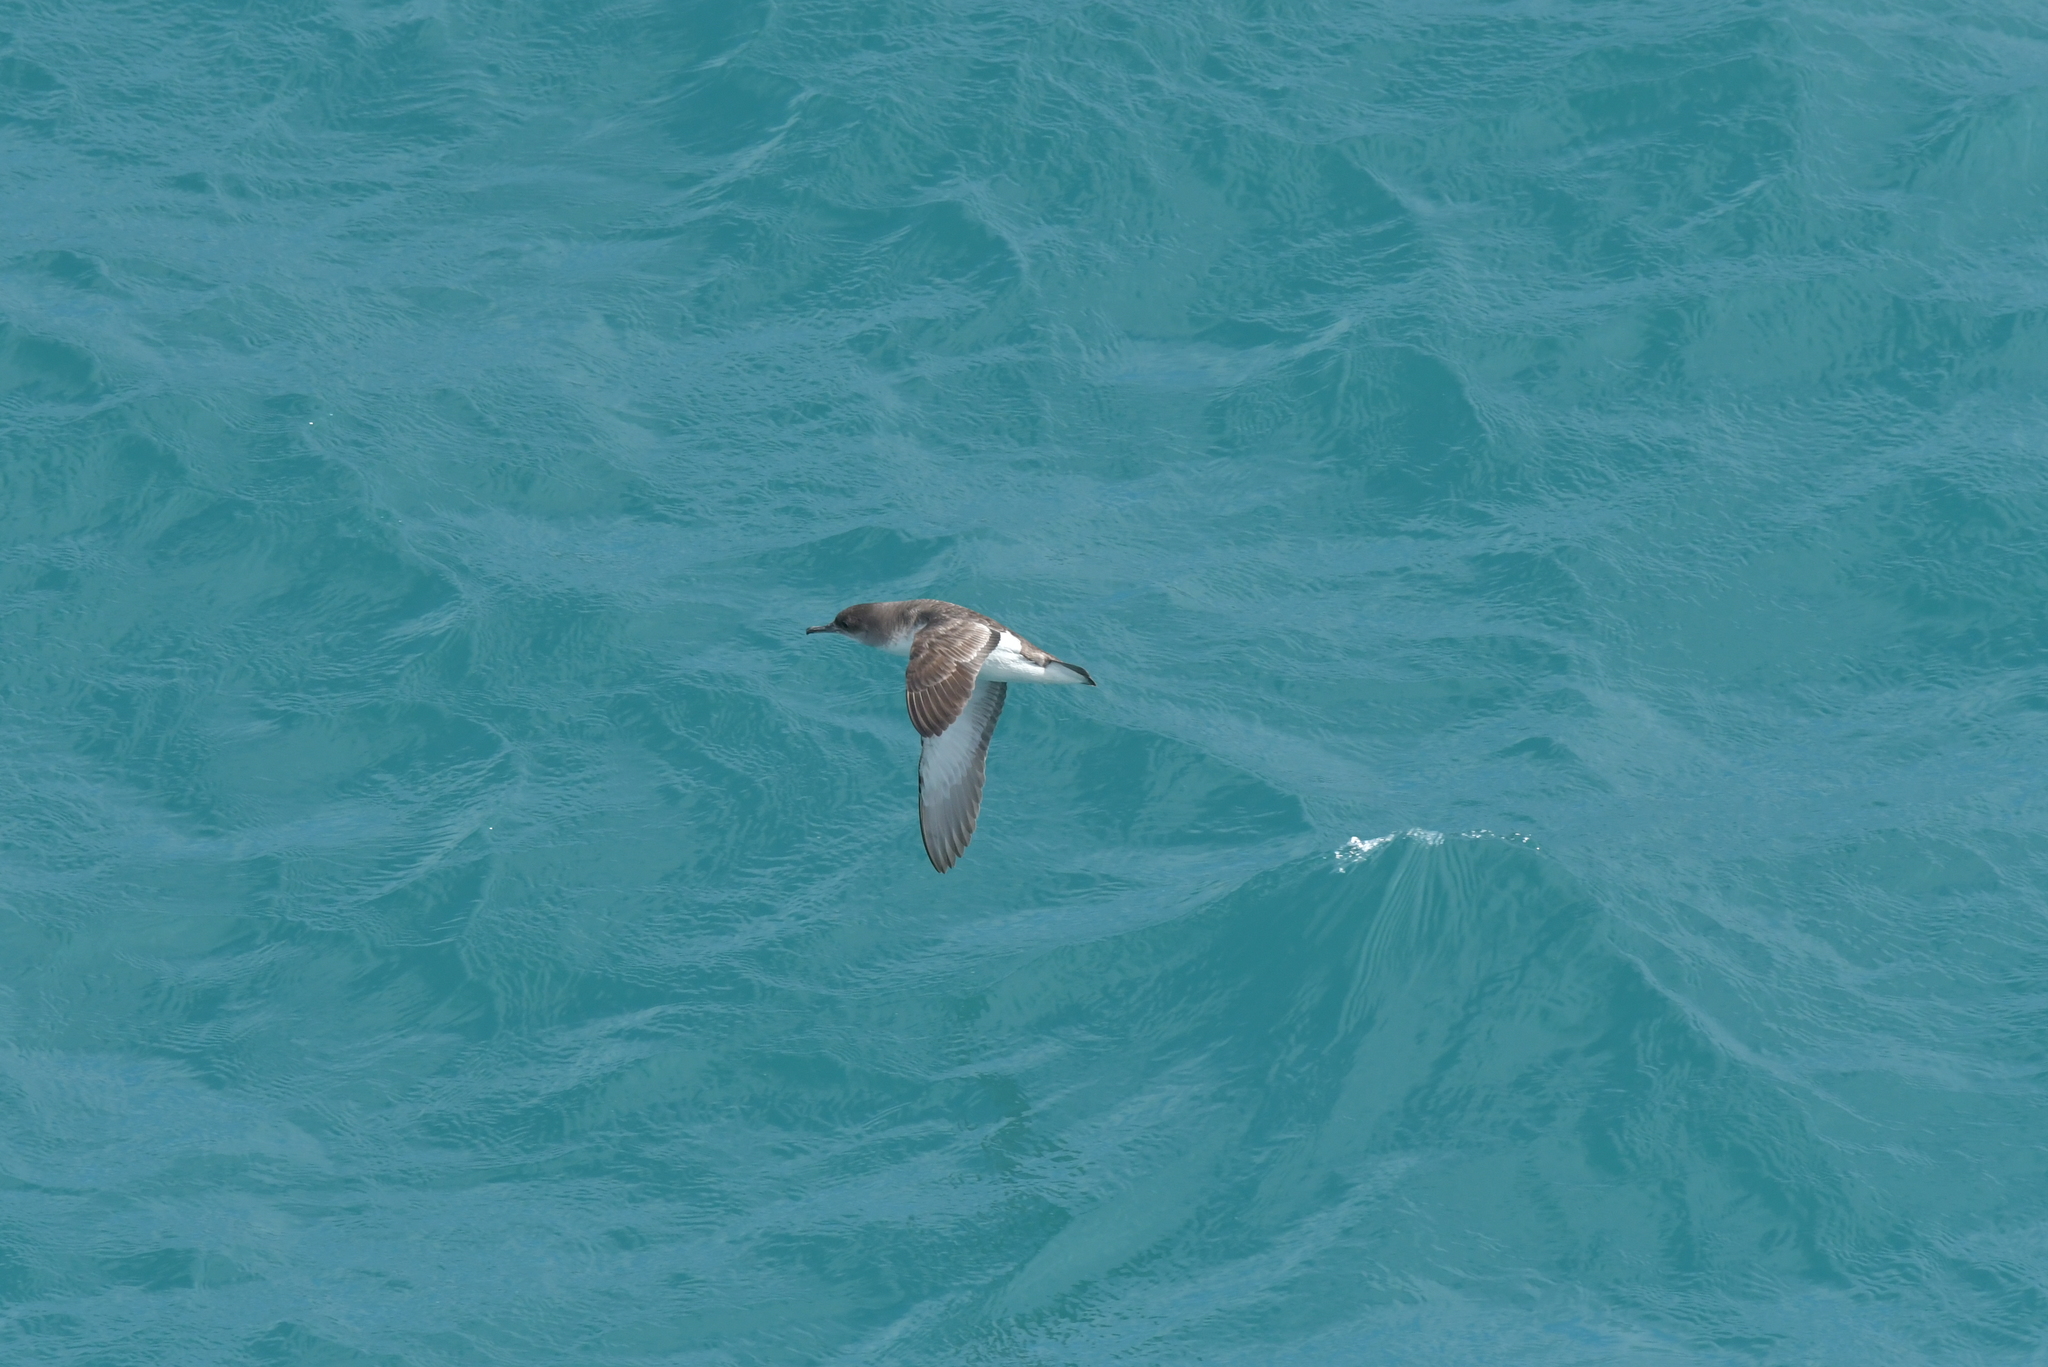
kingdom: Animalia
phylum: Chordata
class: Aves
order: Procellariiformes
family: Procellariidae
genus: Puffinus
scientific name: Puffinus gavia
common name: Fluttering shearwater
